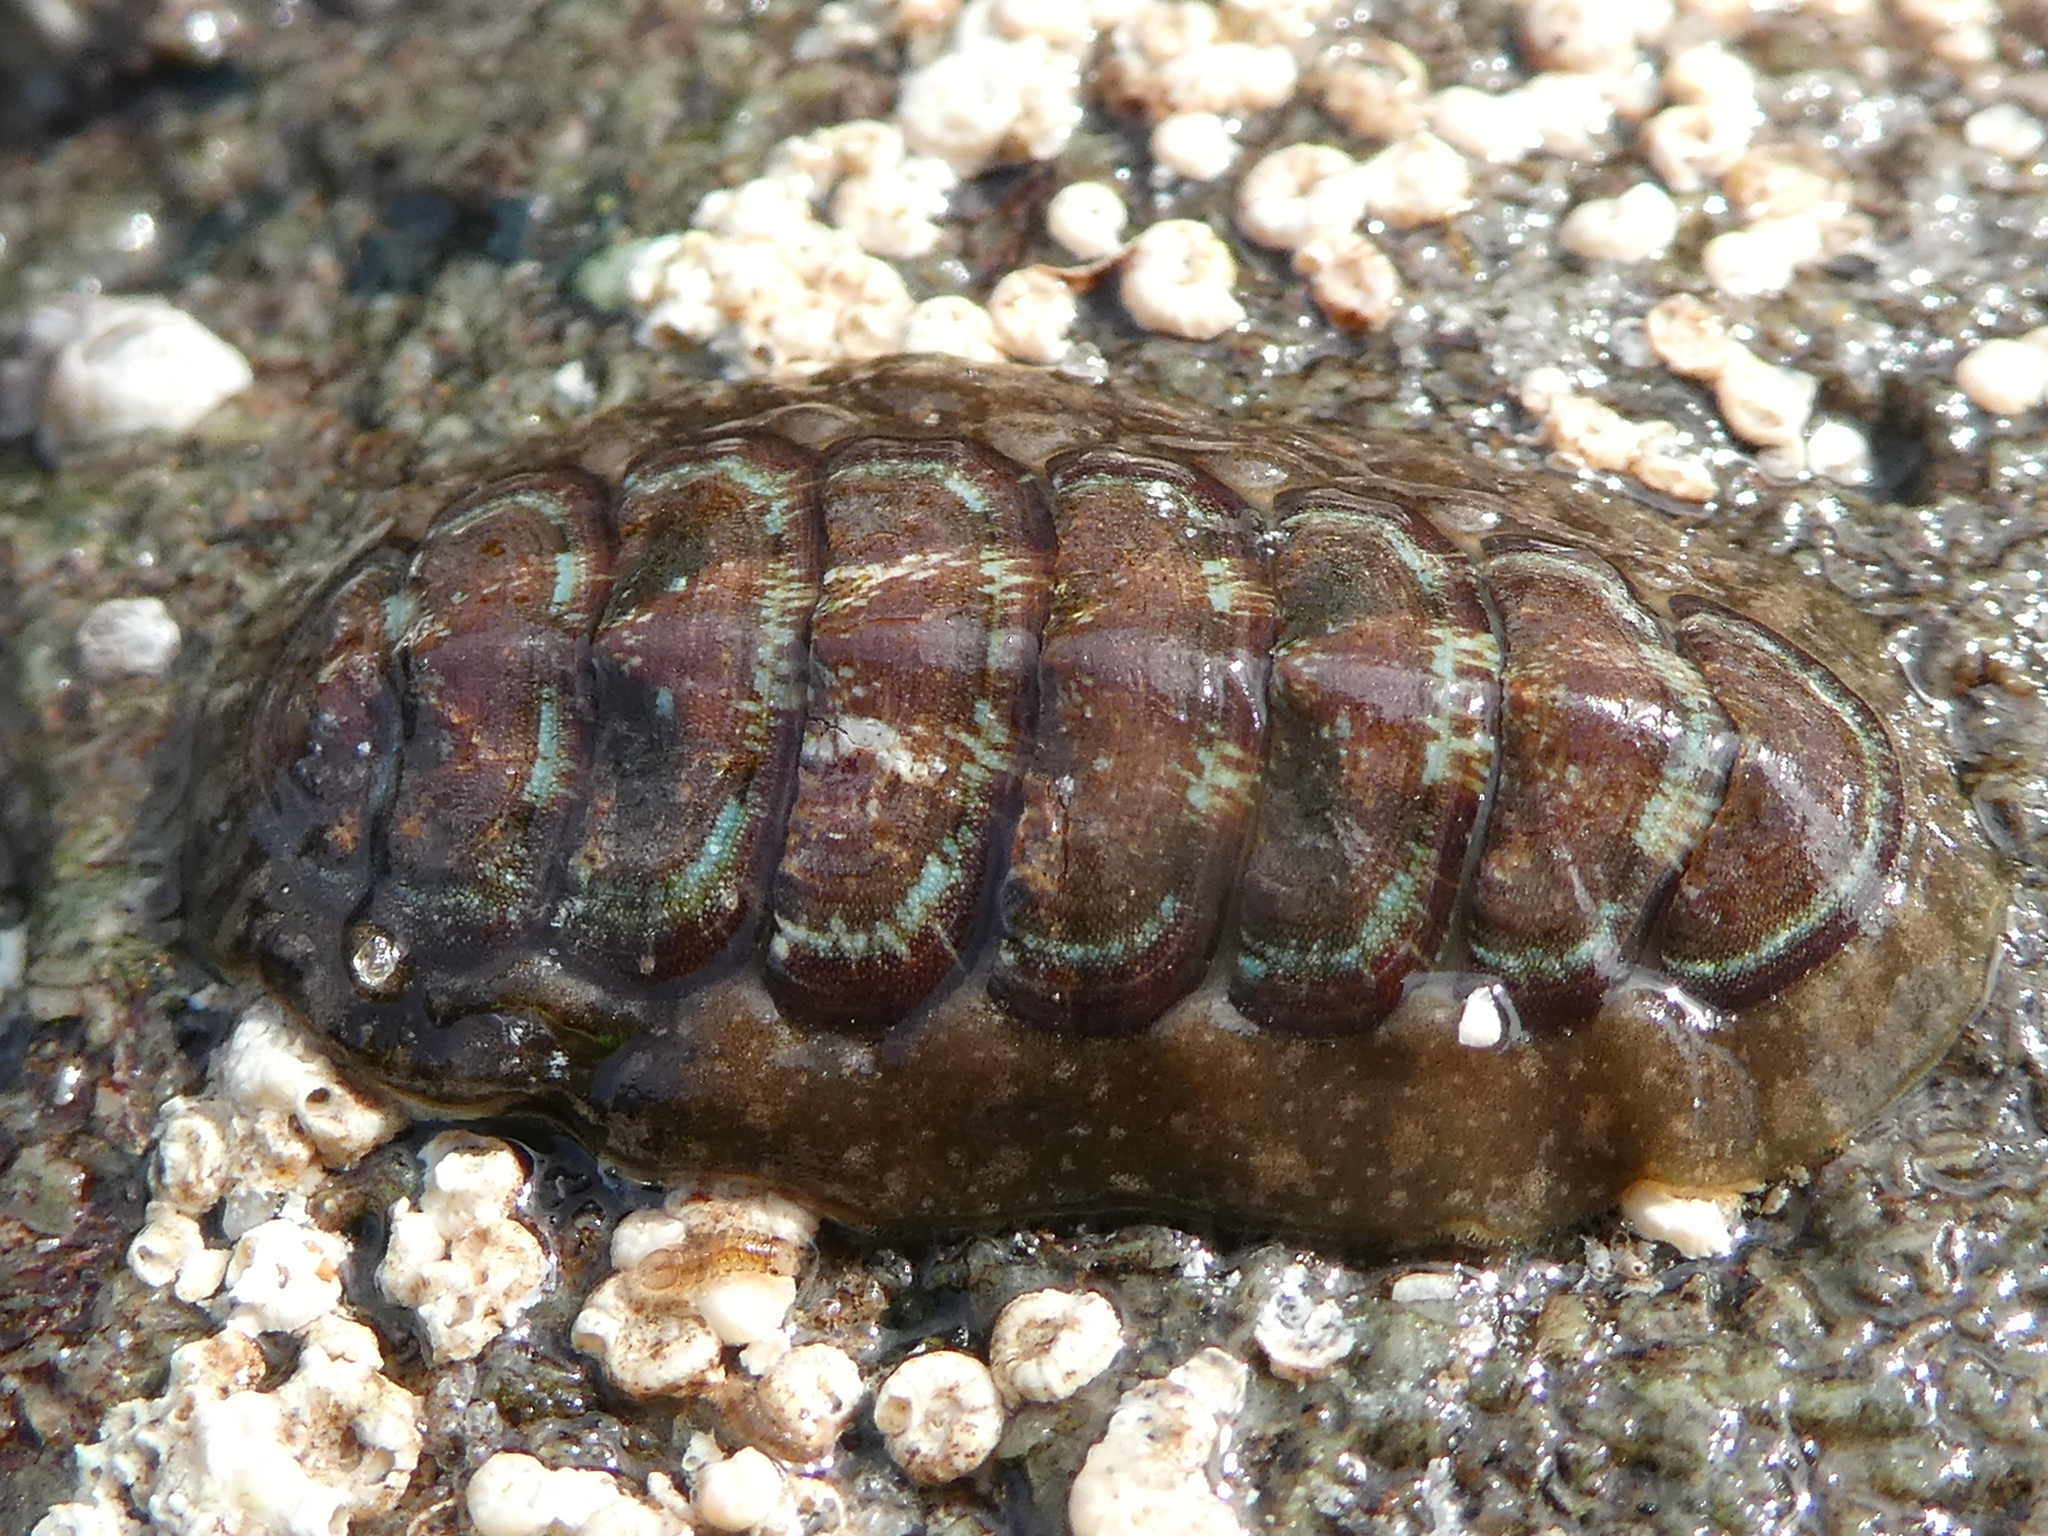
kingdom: Animalia
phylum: Mollusca
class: Polyplacophora
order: Chitonida
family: Tonicellidae
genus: Cyanoplax
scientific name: Cyanoplax dentiens
